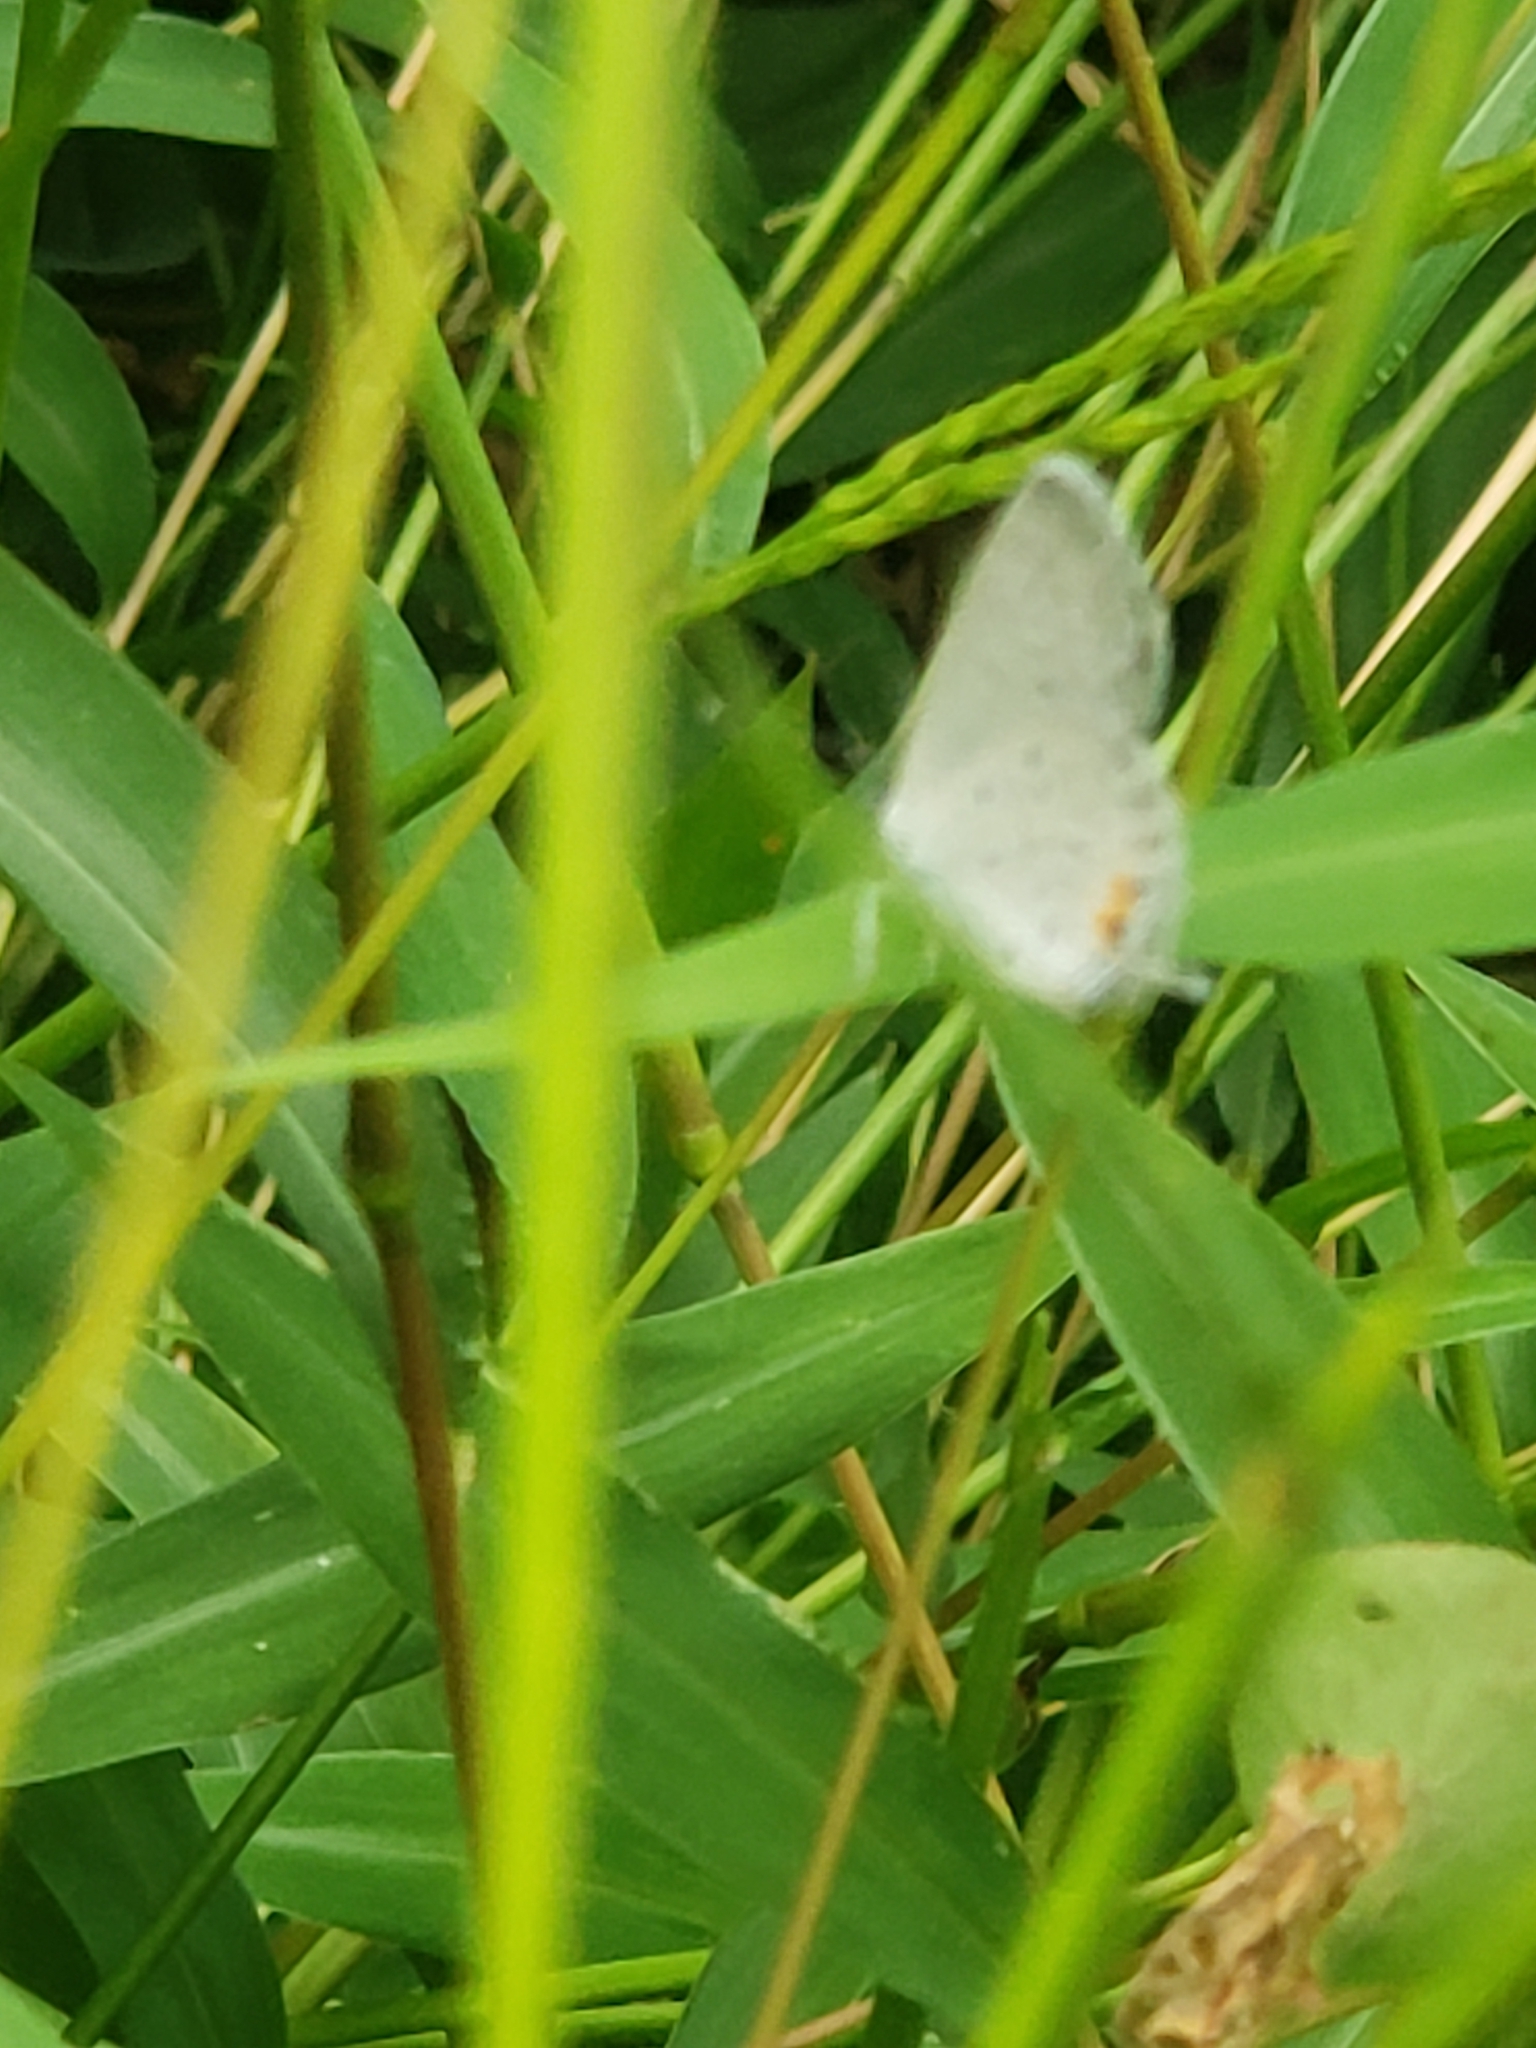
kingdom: Animalia
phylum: Arthropoda
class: Insecta
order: Lepidoptera
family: Lycaenidae
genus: Elkalyce
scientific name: Elkalyce comyntas
